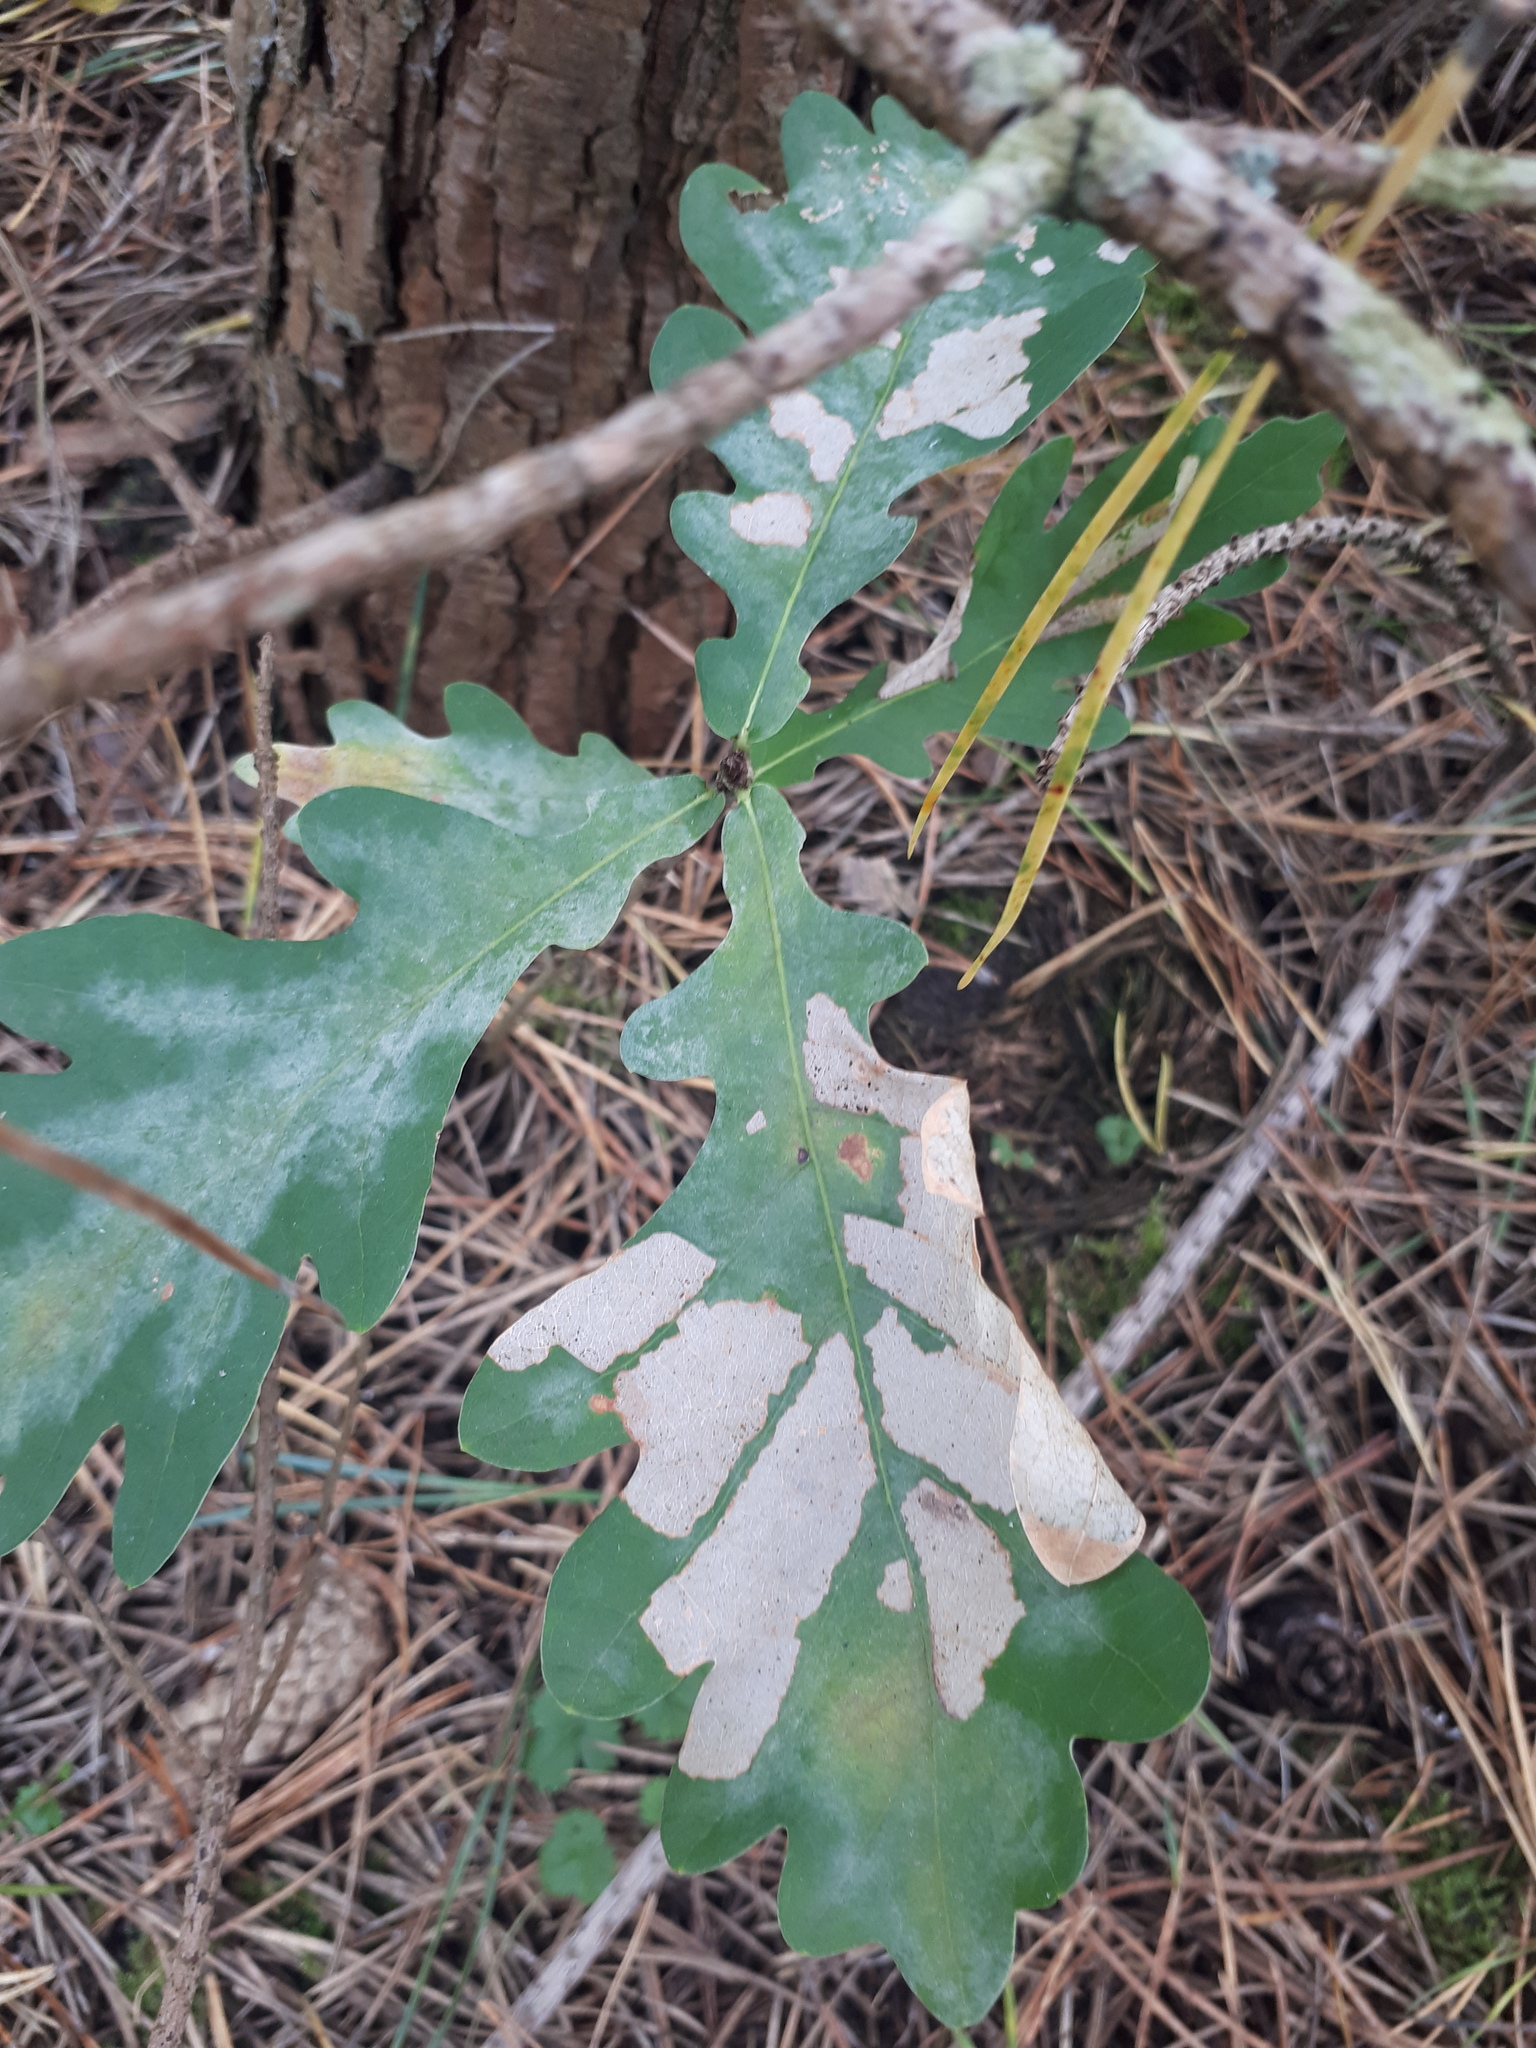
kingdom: Plantae
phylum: Tracheophyta
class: Magnoliopsida
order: Fagales
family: Fagaceae
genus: Quercus
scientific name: Quercus robur
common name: Pedunculate oak
